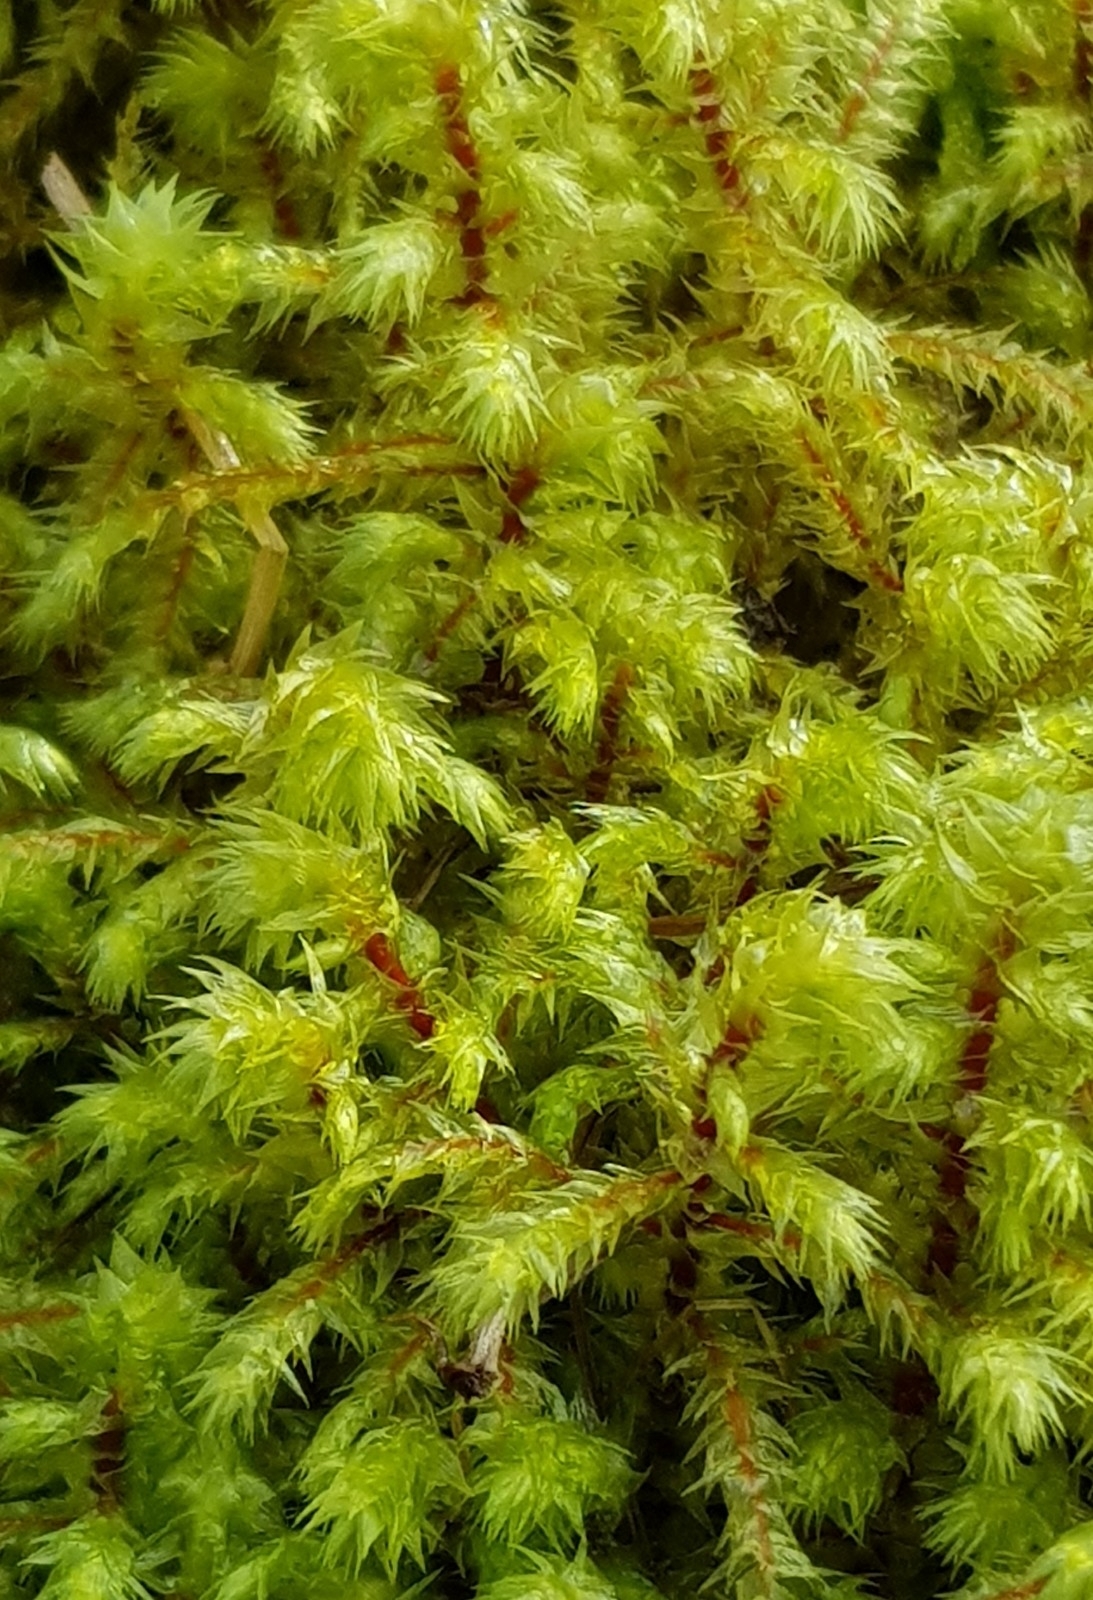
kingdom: Plantae
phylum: Bryophyta
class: Bryopsida
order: Hypnales
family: Hylocomiaceae
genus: Hylocomiadelphus
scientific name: Hylocomiadelphus triquetrus
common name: Rough goose neck moss
